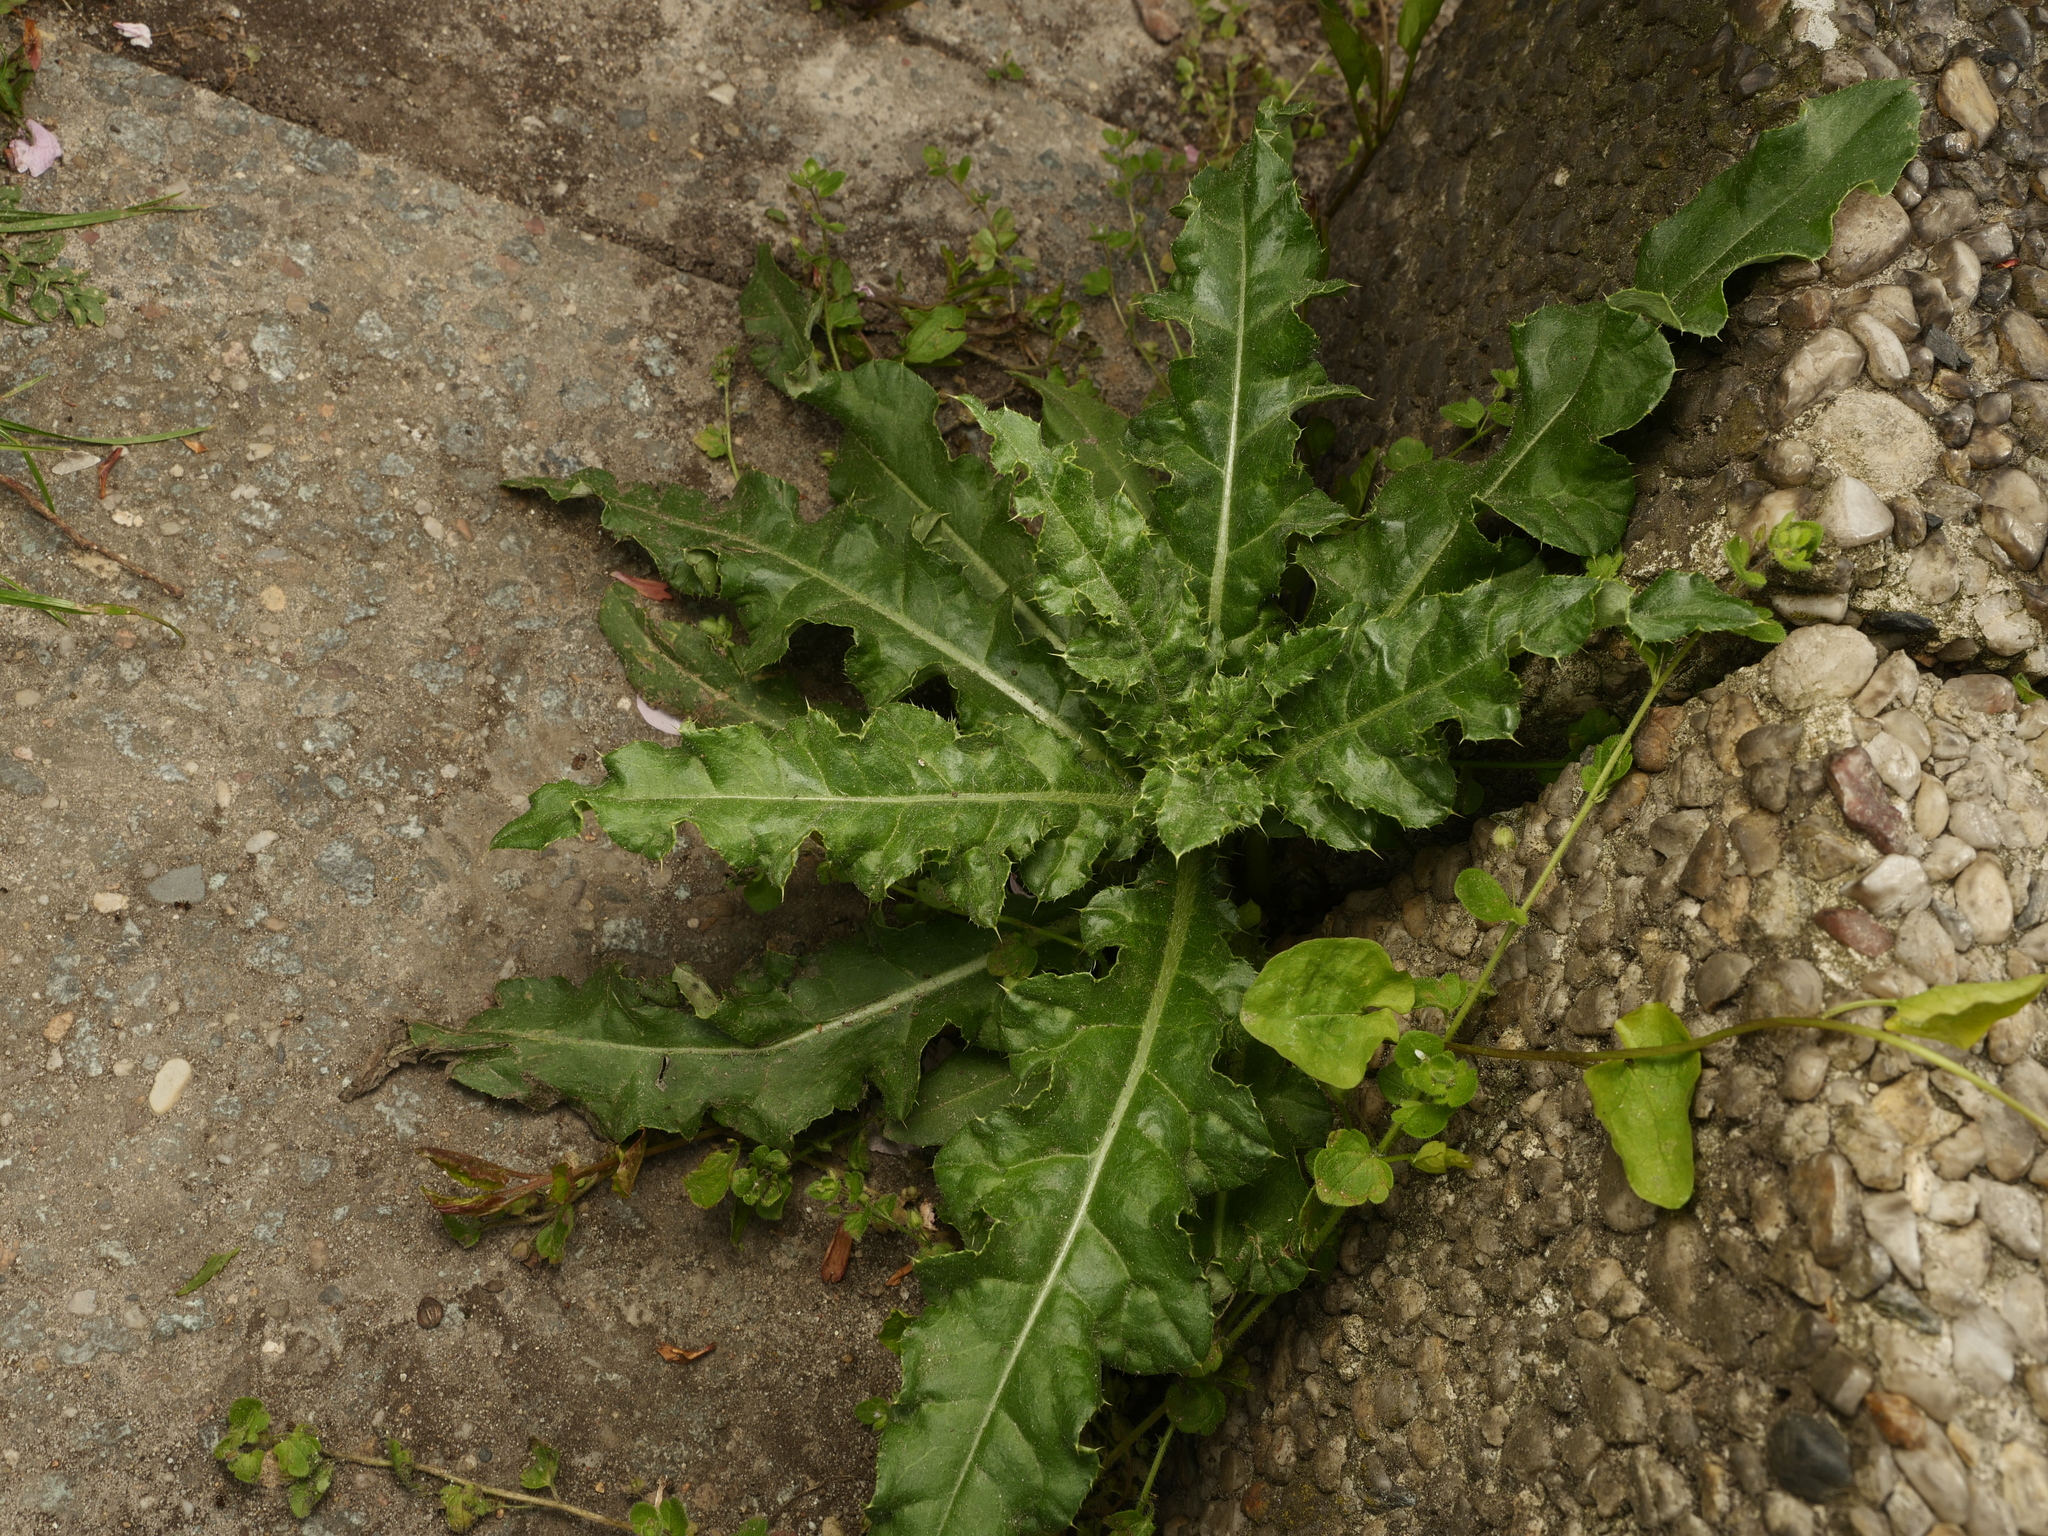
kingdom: Plantae
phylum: Tracheophyta
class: Magnoliopsida
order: Asterales
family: Asteraceae
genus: Cirsium
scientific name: Cirsium arvense
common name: Creeping thistle
